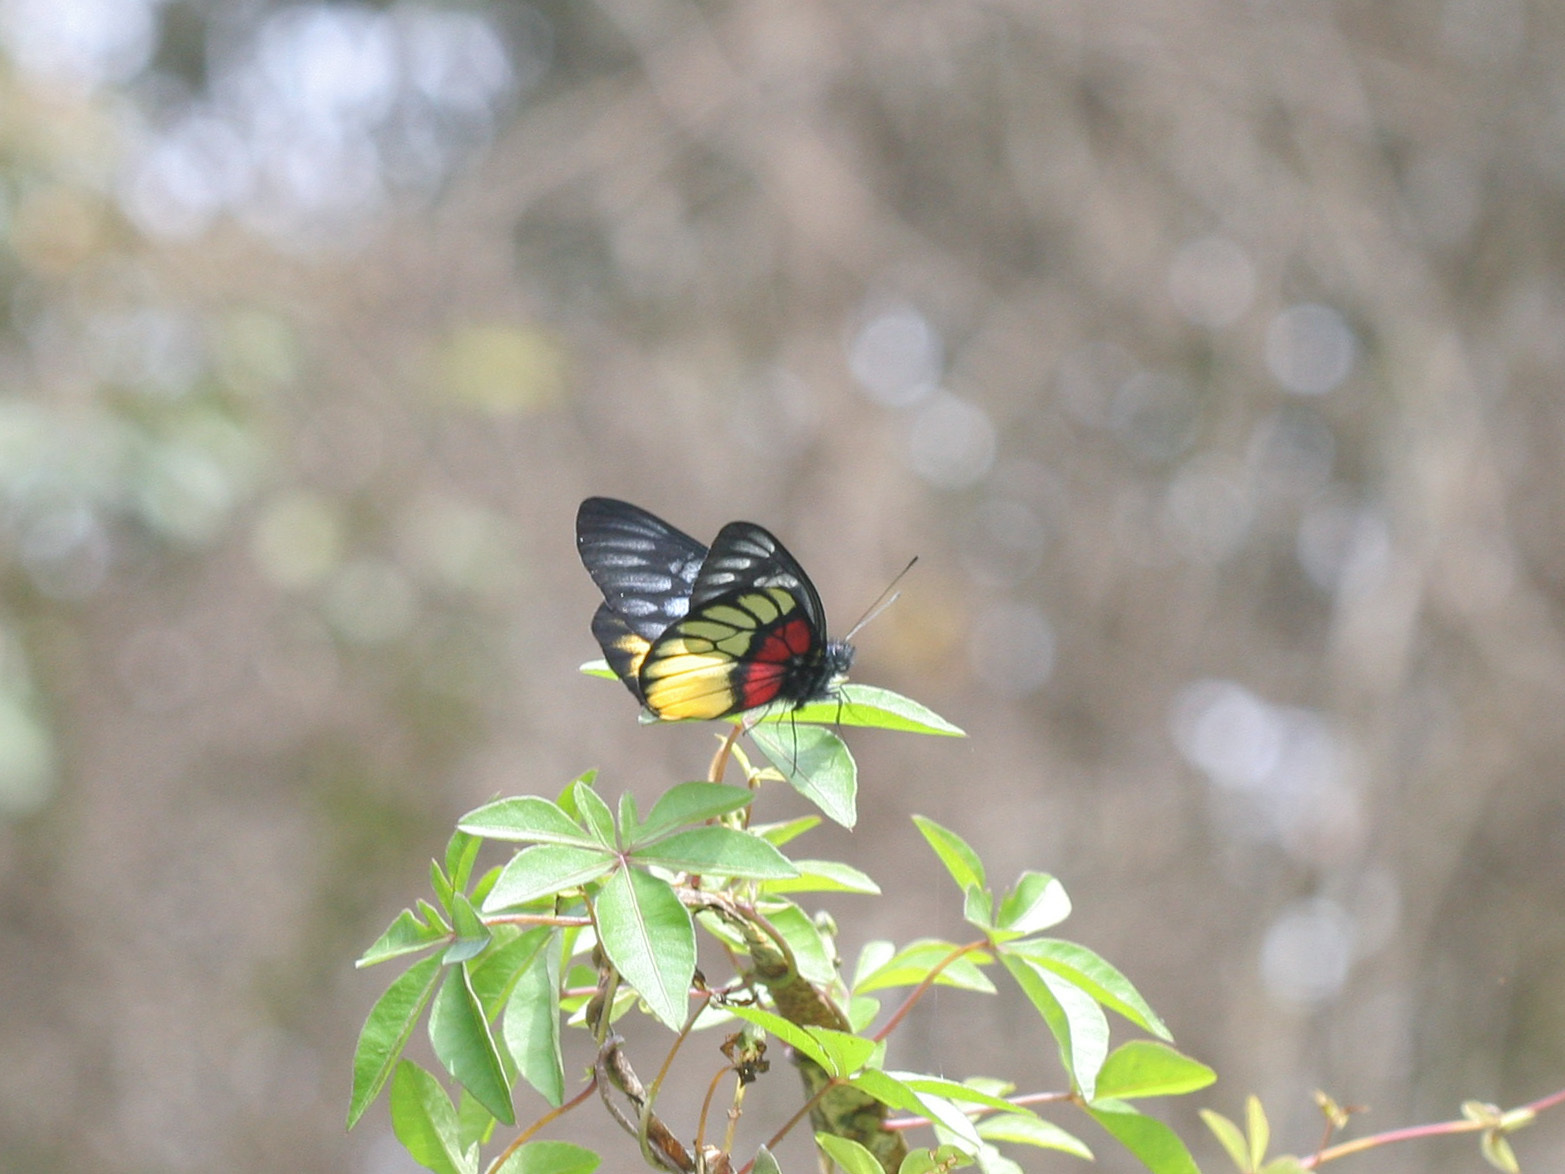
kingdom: Animalia
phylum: Arthropoda
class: Insecta
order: Lepidoptera
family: Pieridae
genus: Delias
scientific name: Delias ninus
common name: Malayan jezebel
